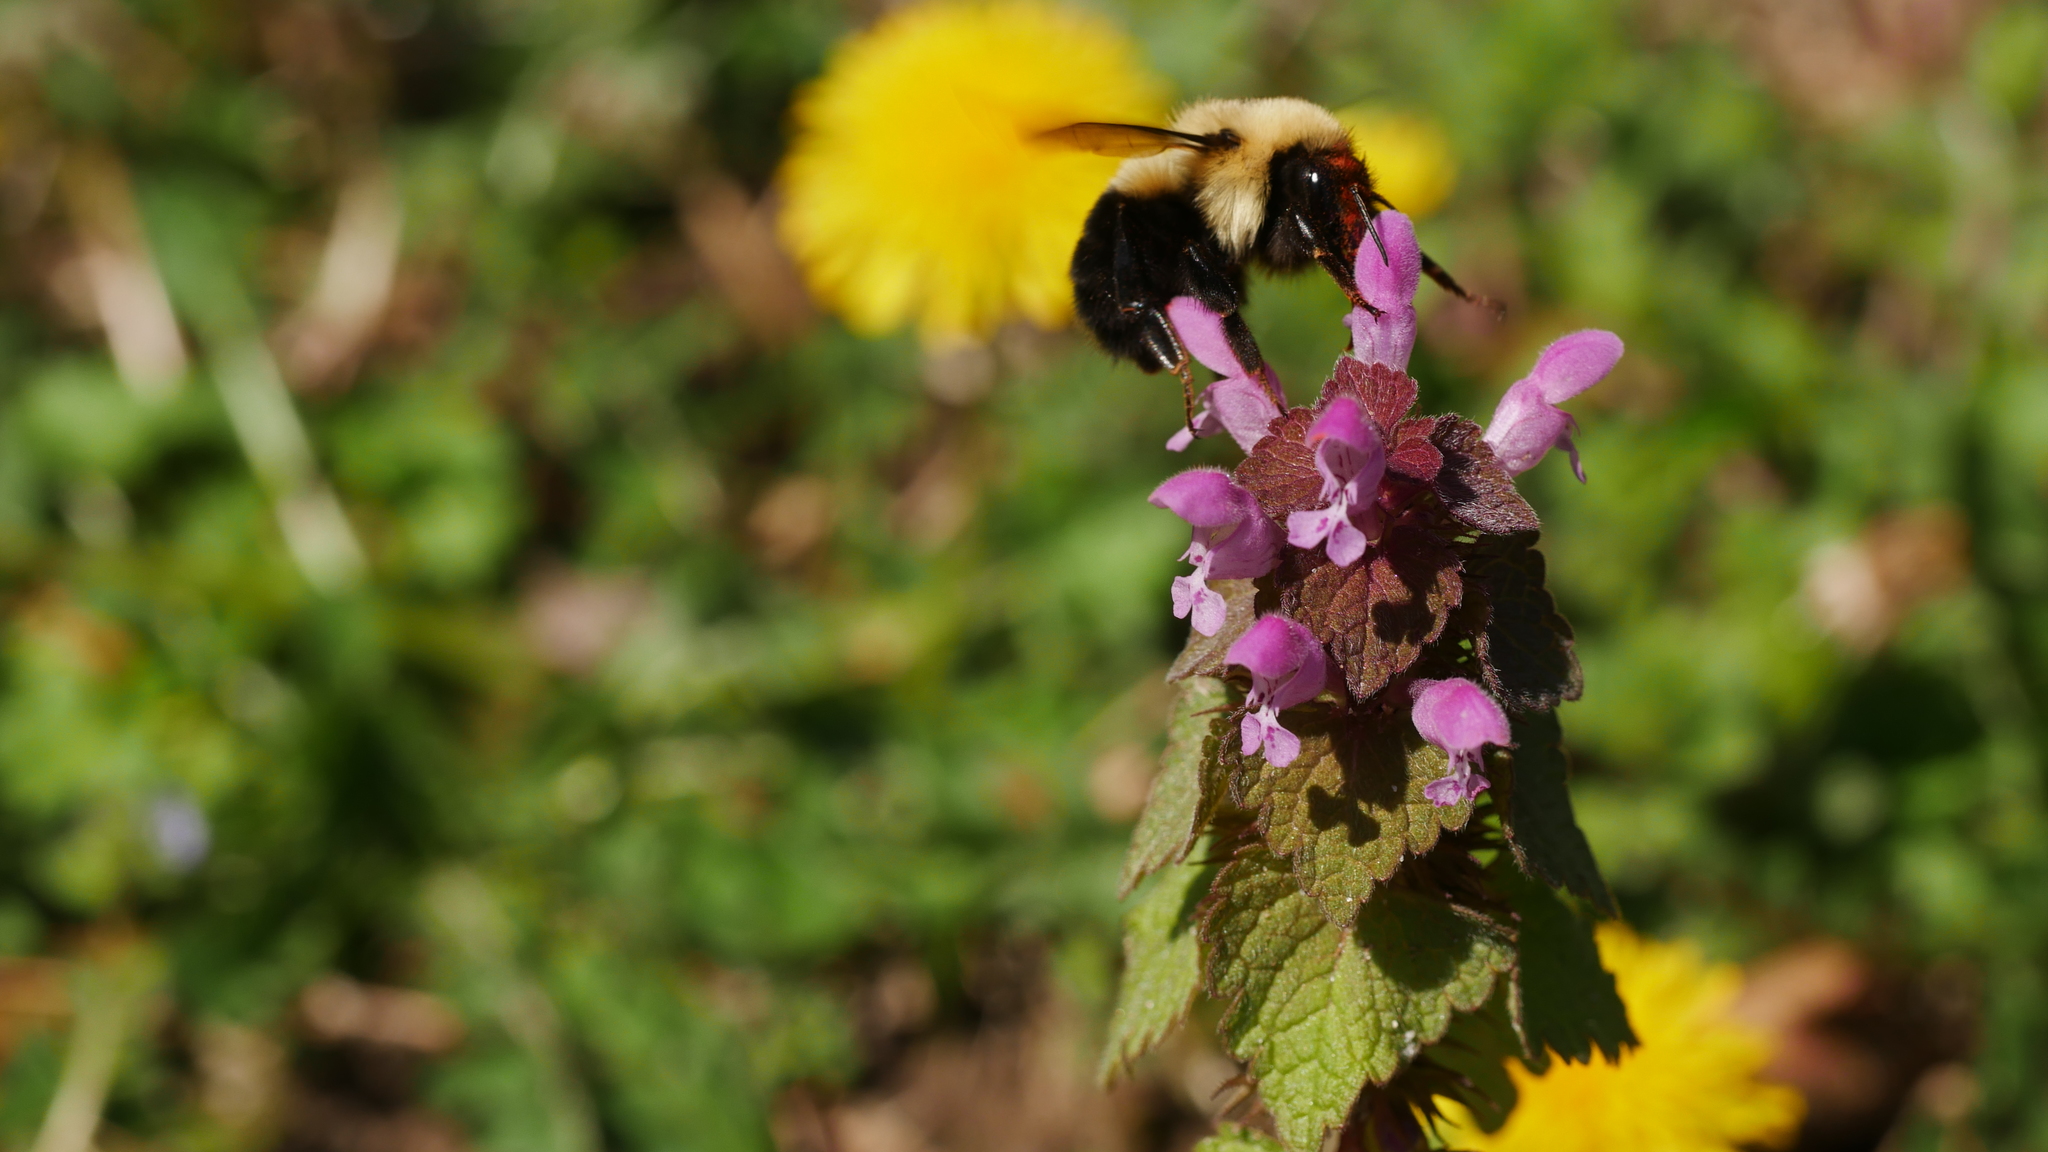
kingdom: Animalia
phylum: Arthropoda
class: Insecta
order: Hymenoptera
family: Apidae
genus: Bombus
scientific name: Bombus bimaculatus
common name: Two-spotted bumble bee
